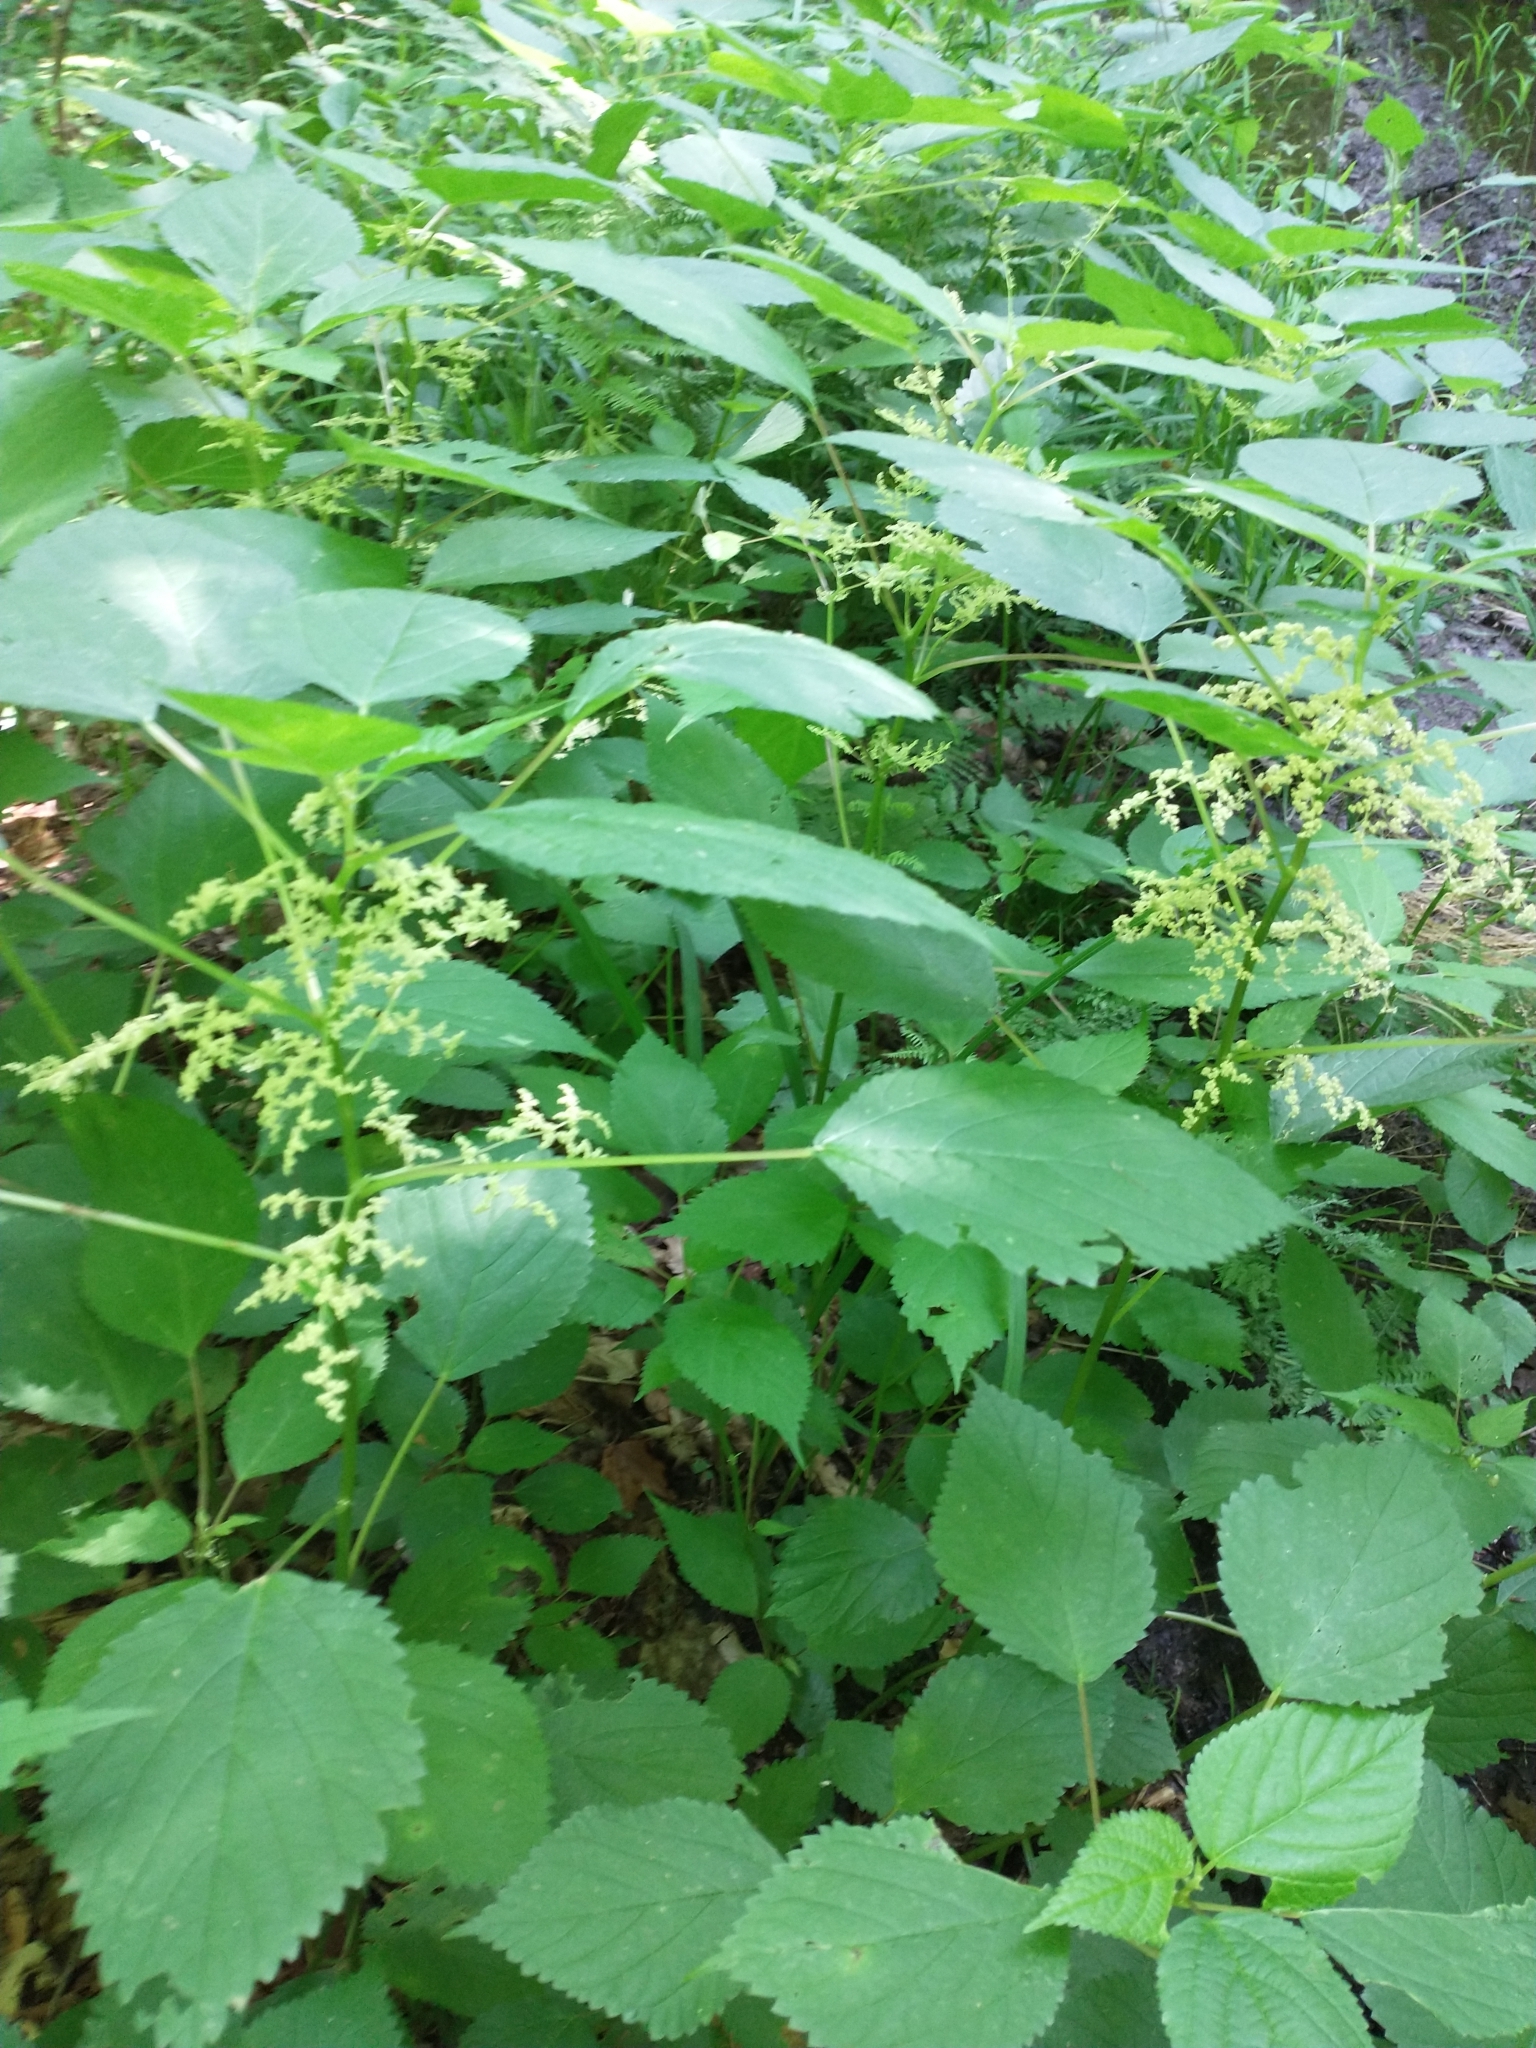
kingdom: Plantae
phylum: Tracheophyta
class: Magnoliopsida
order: Rosales
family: Urticaceae
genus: Laportea
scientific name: Laportea canadensis
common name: Canada nettle
